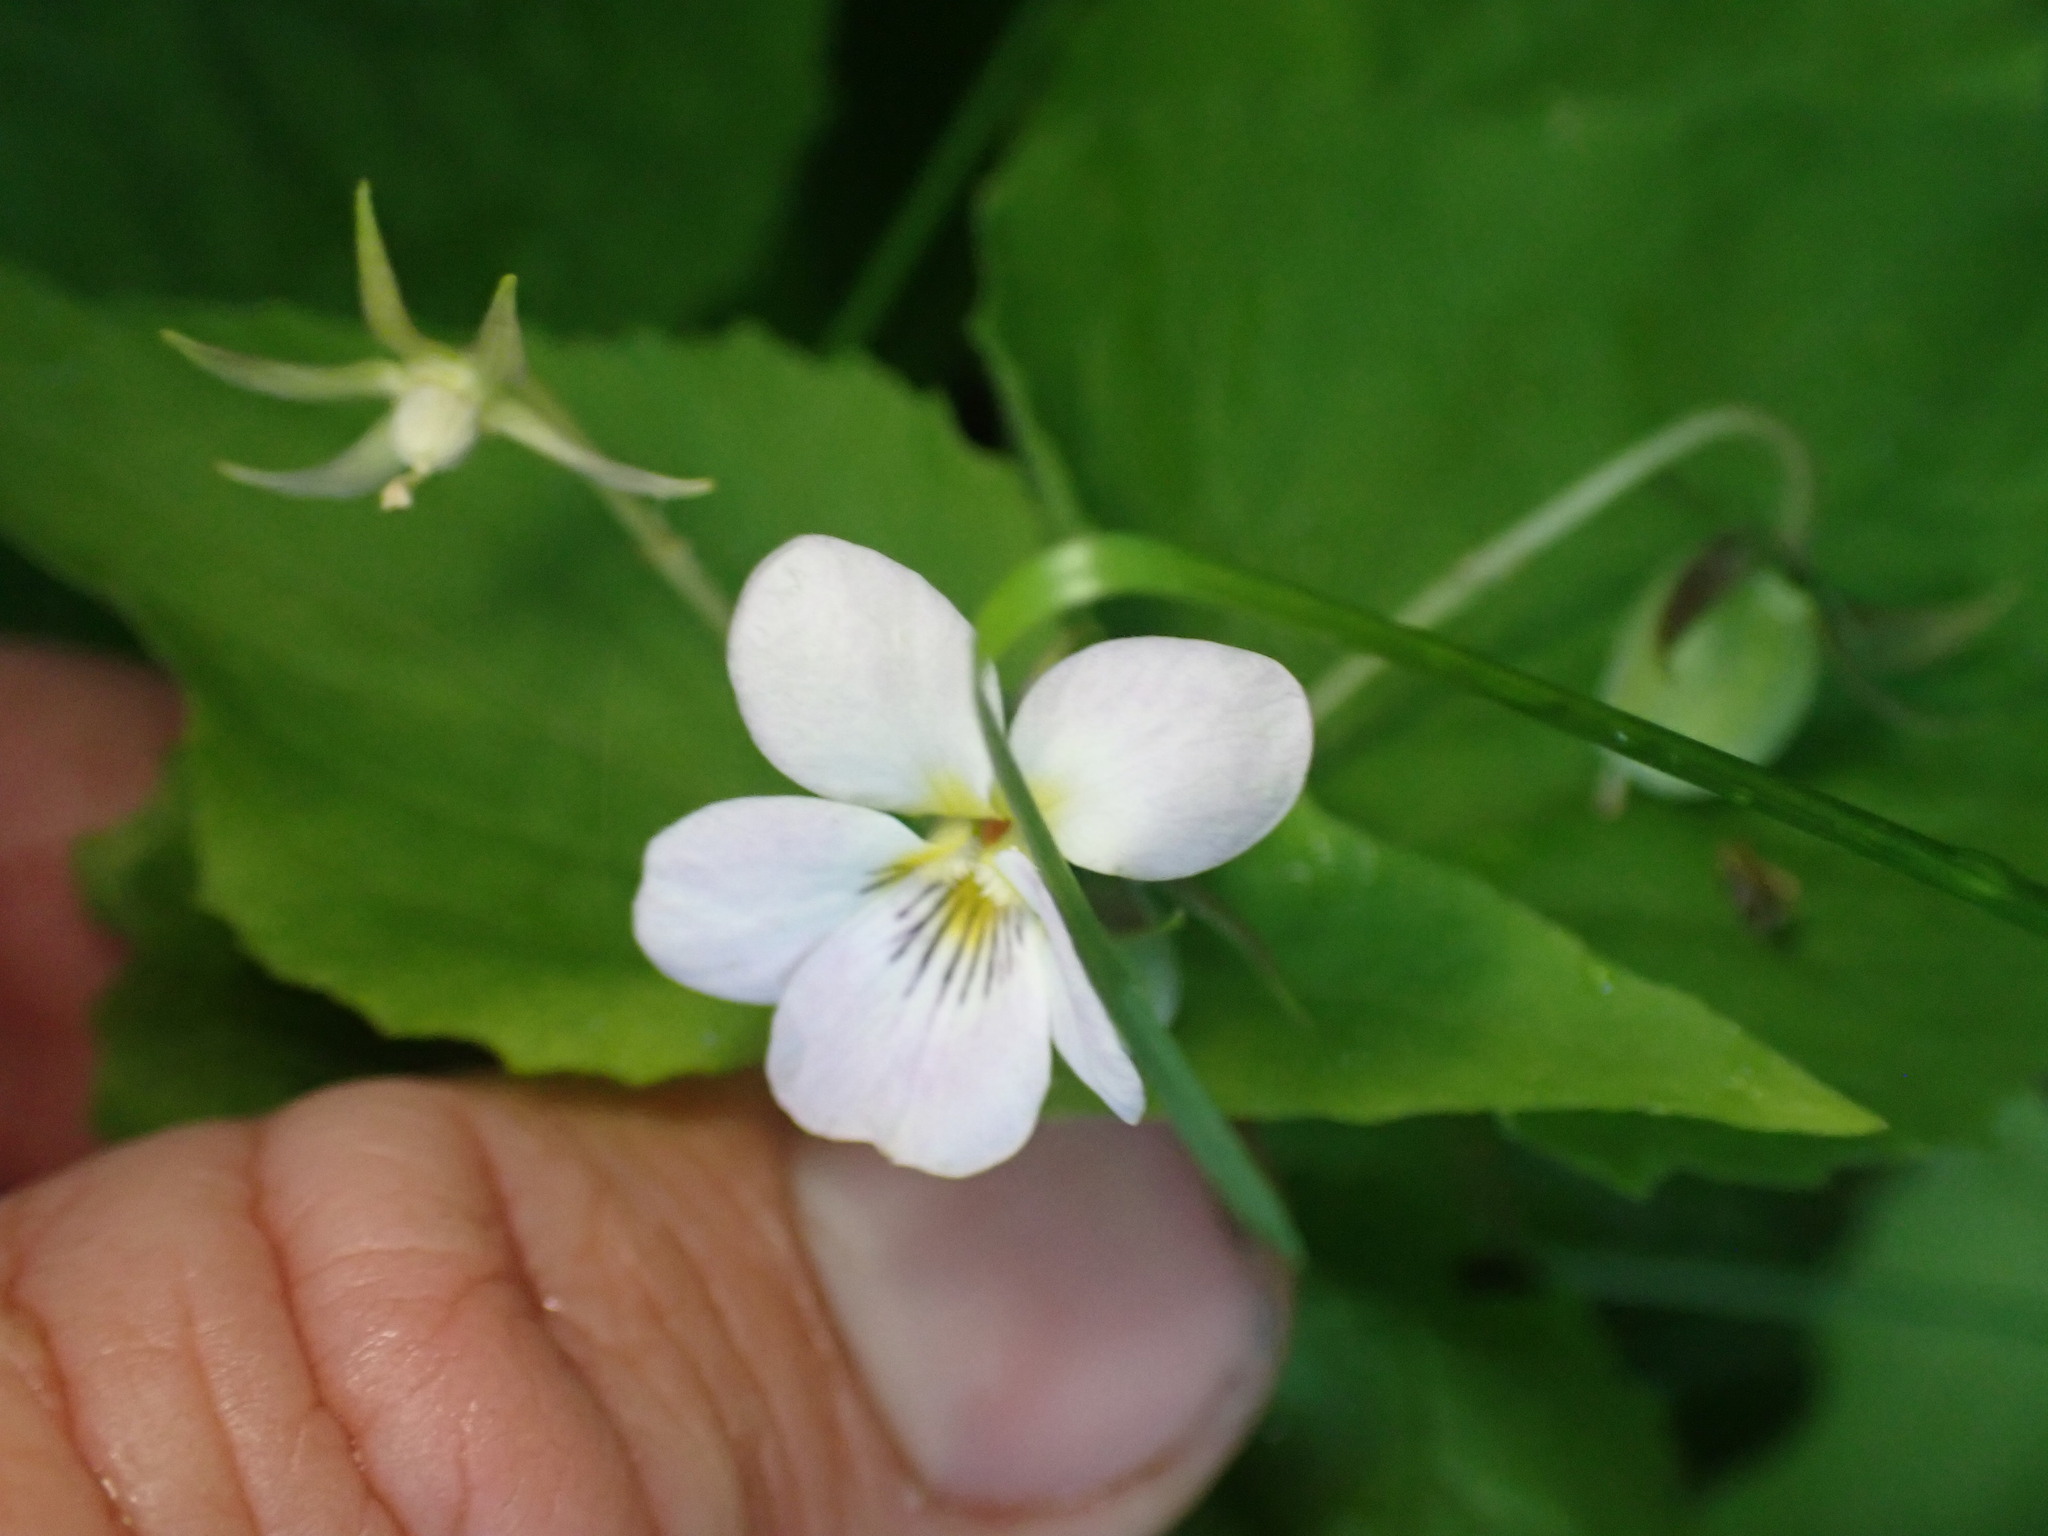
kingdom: Plantae
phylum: Tracheophyta
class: Magnoliopsida
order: Malpighiales
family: Violaceae
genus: Viola
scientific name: Viola canadensis
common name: Canada violet
